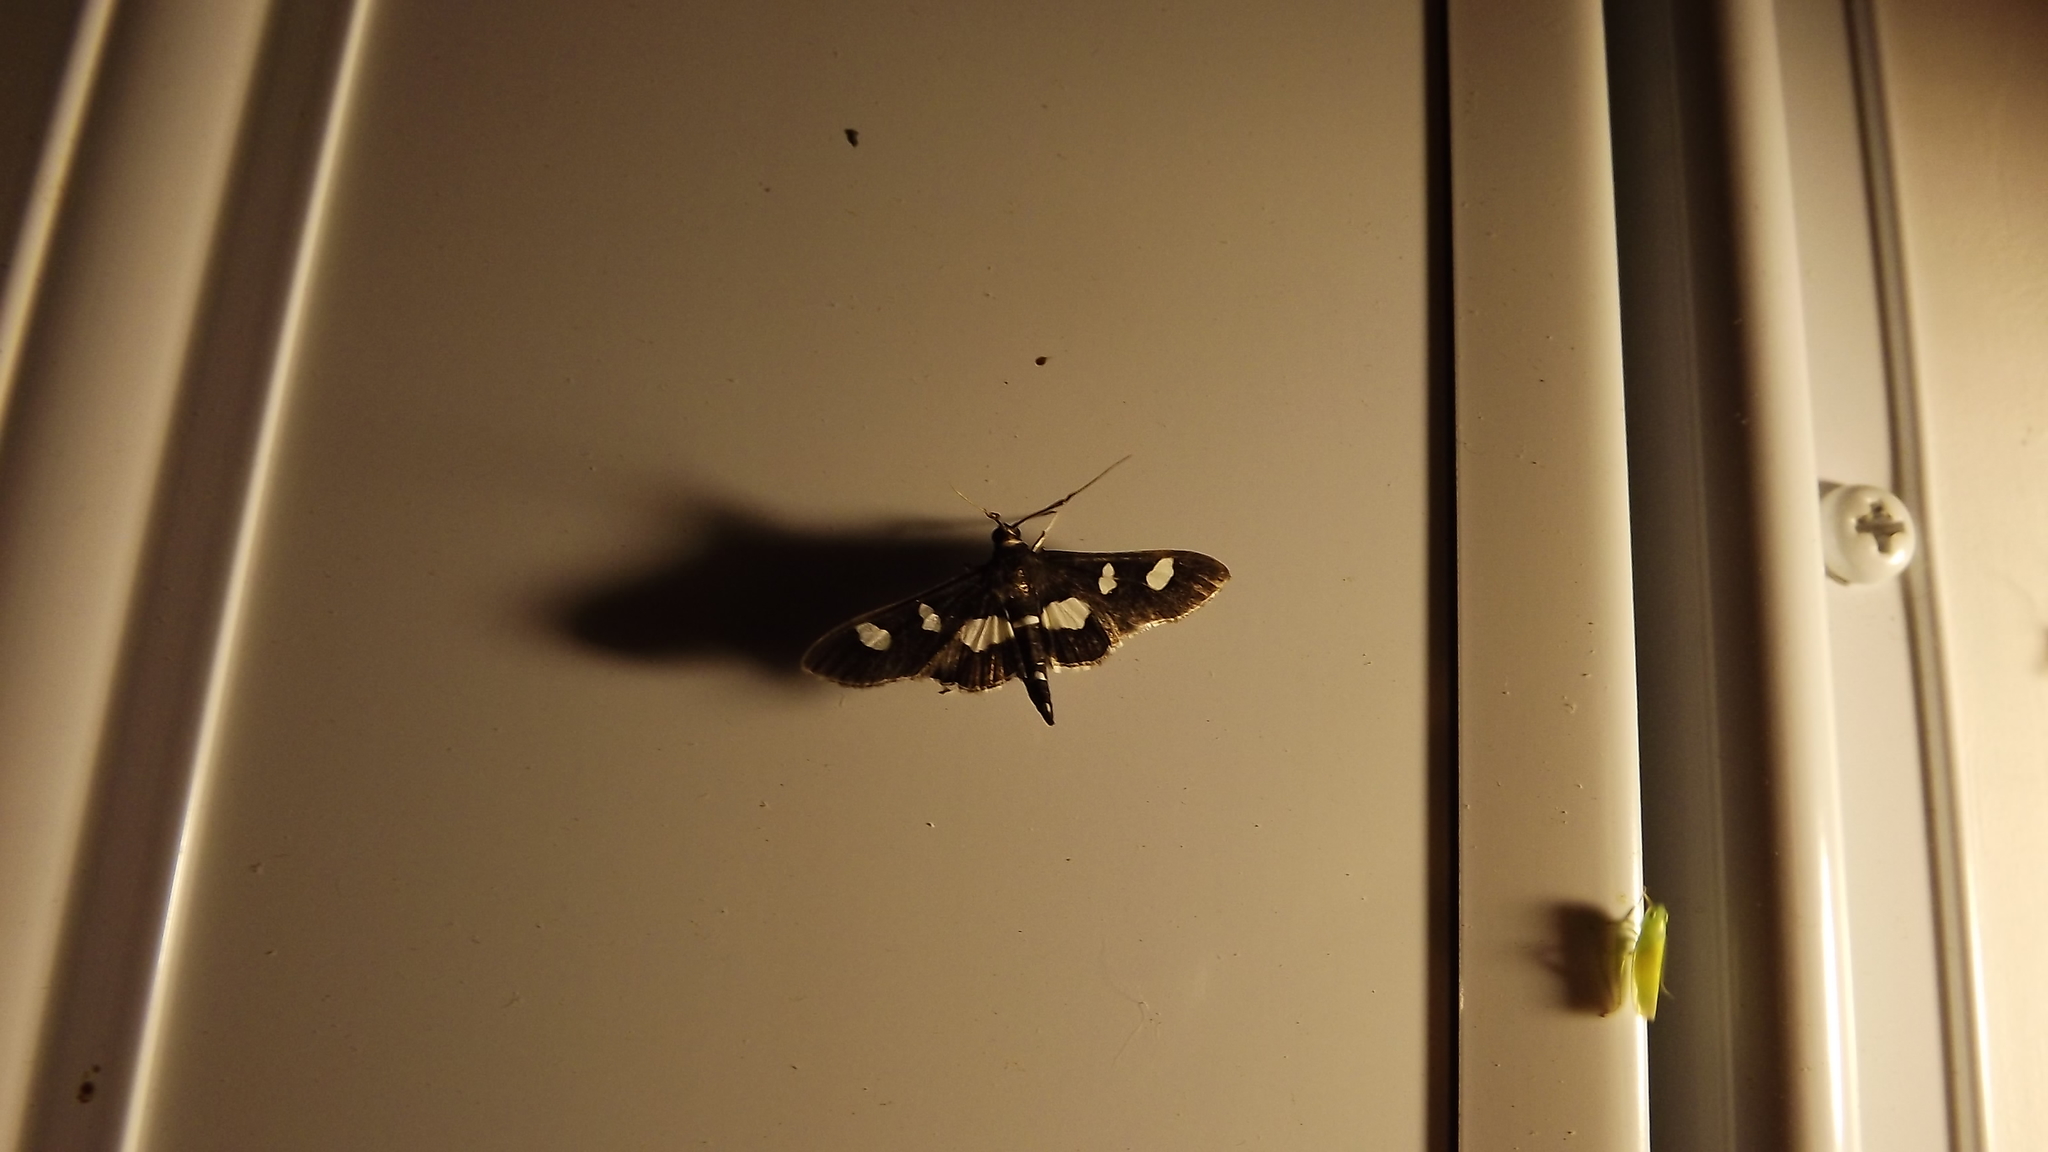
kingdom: Animalia
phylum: Arthropoda
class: Insecta
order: Lepidoptera
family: Crambidae
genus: Desmia
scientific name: Desmia
